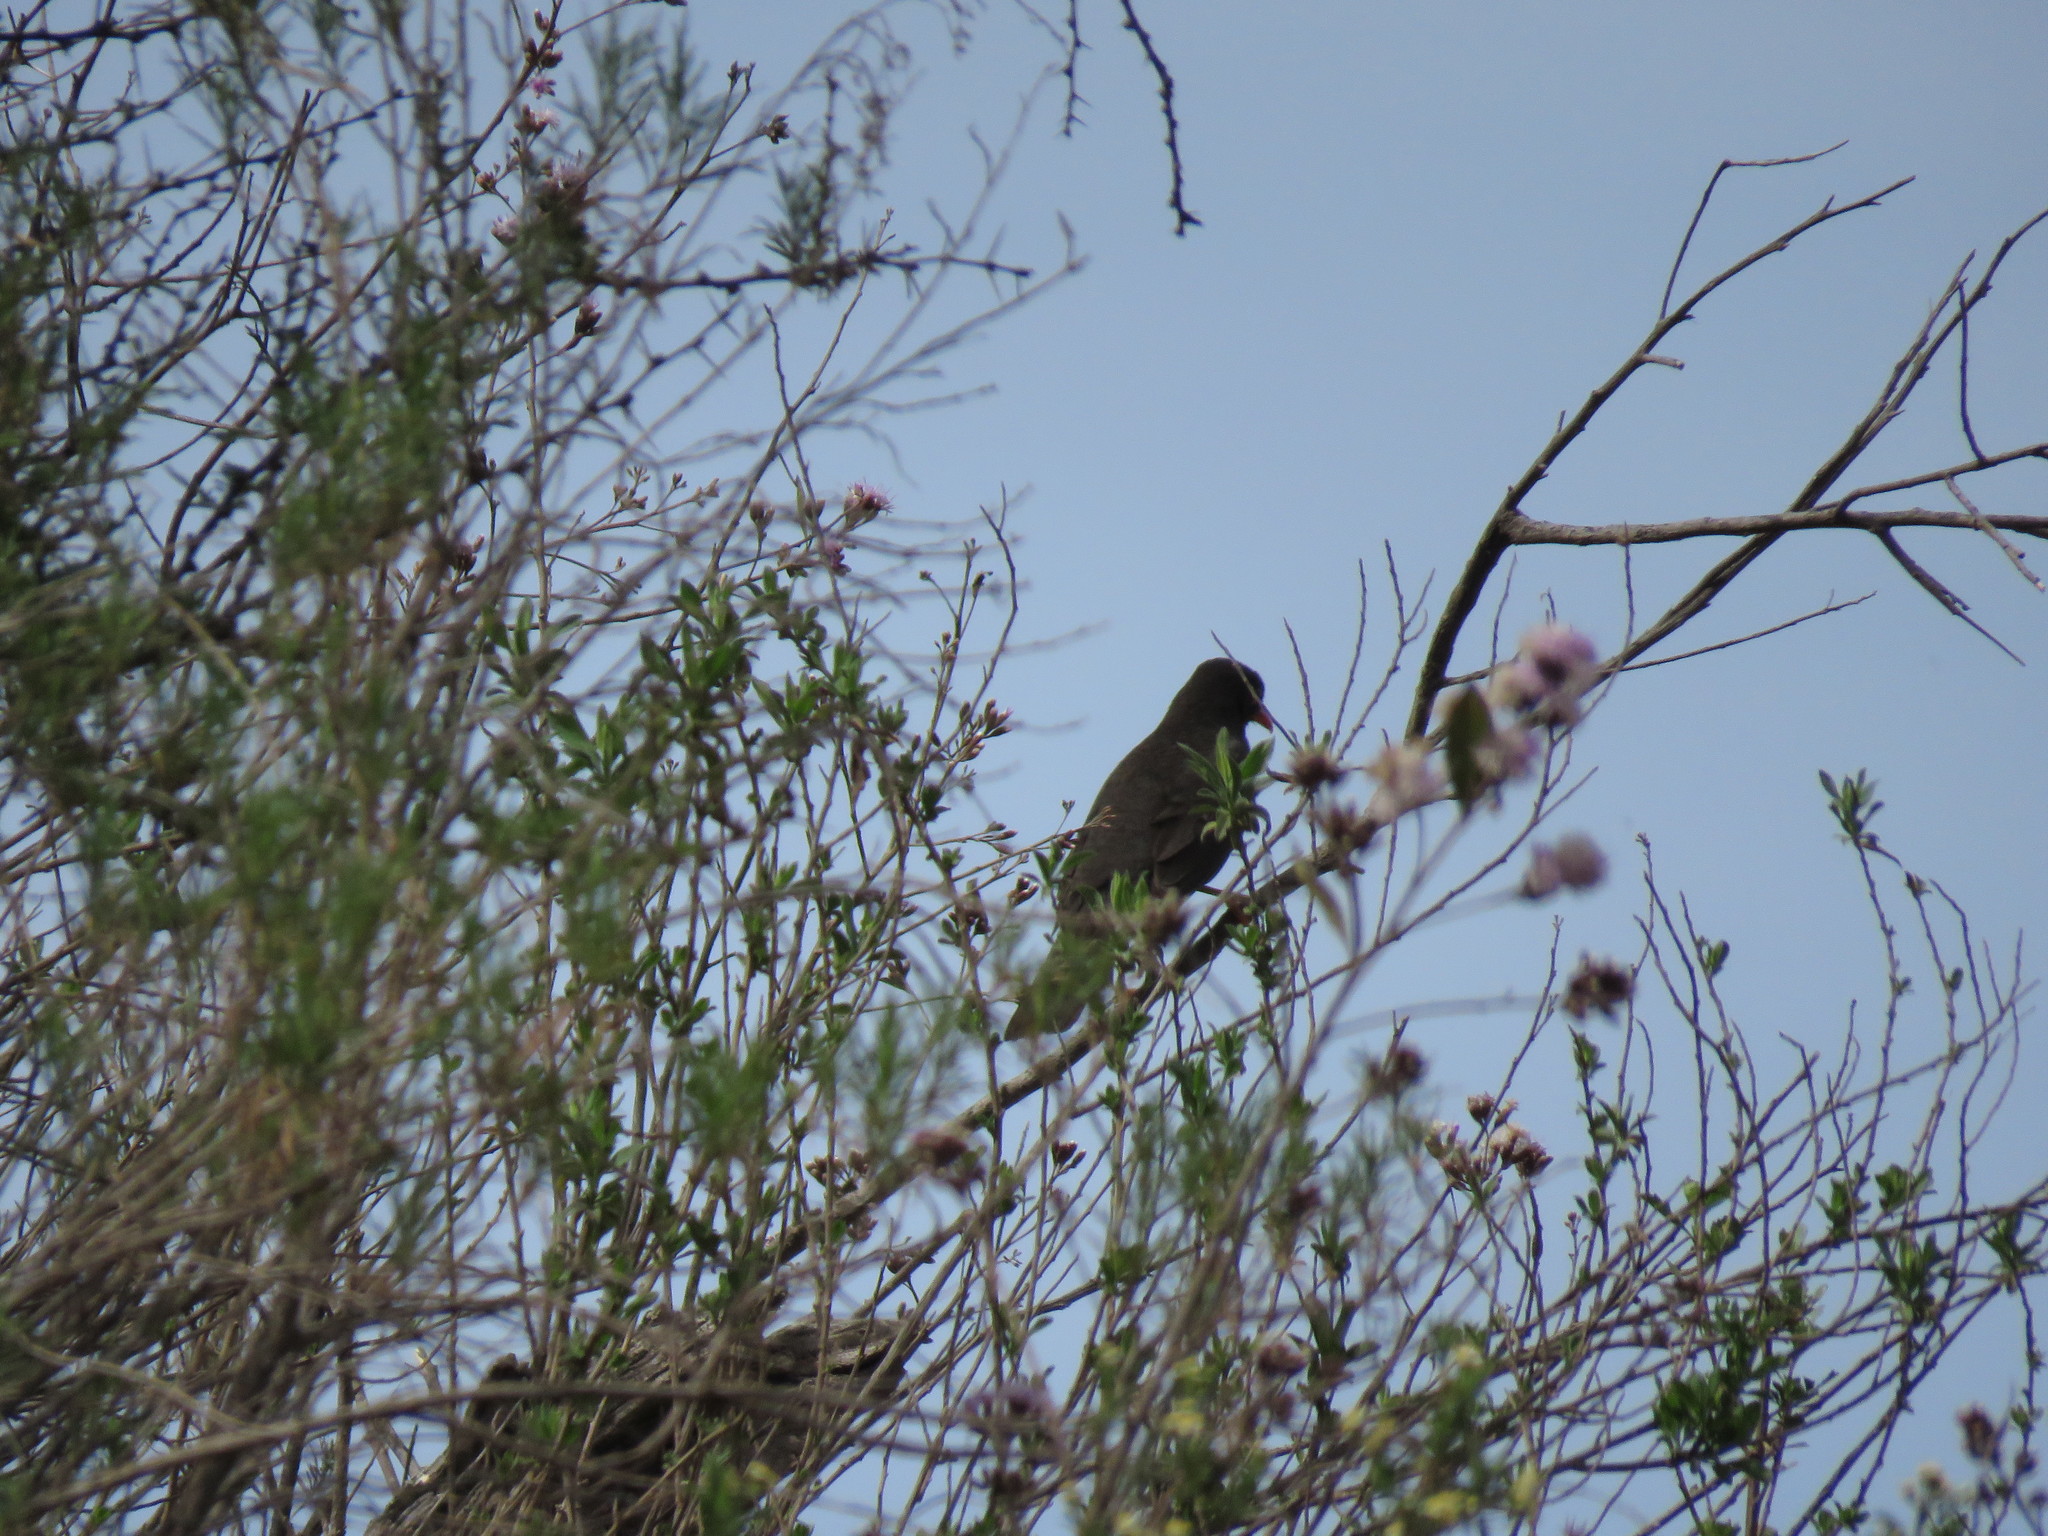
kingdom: Animalia
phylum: Chordata
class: Aves
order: Passeriformes
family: Turdidae
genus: Turdus
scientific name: Turdus chiguanco
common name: Chiguanco thrush
